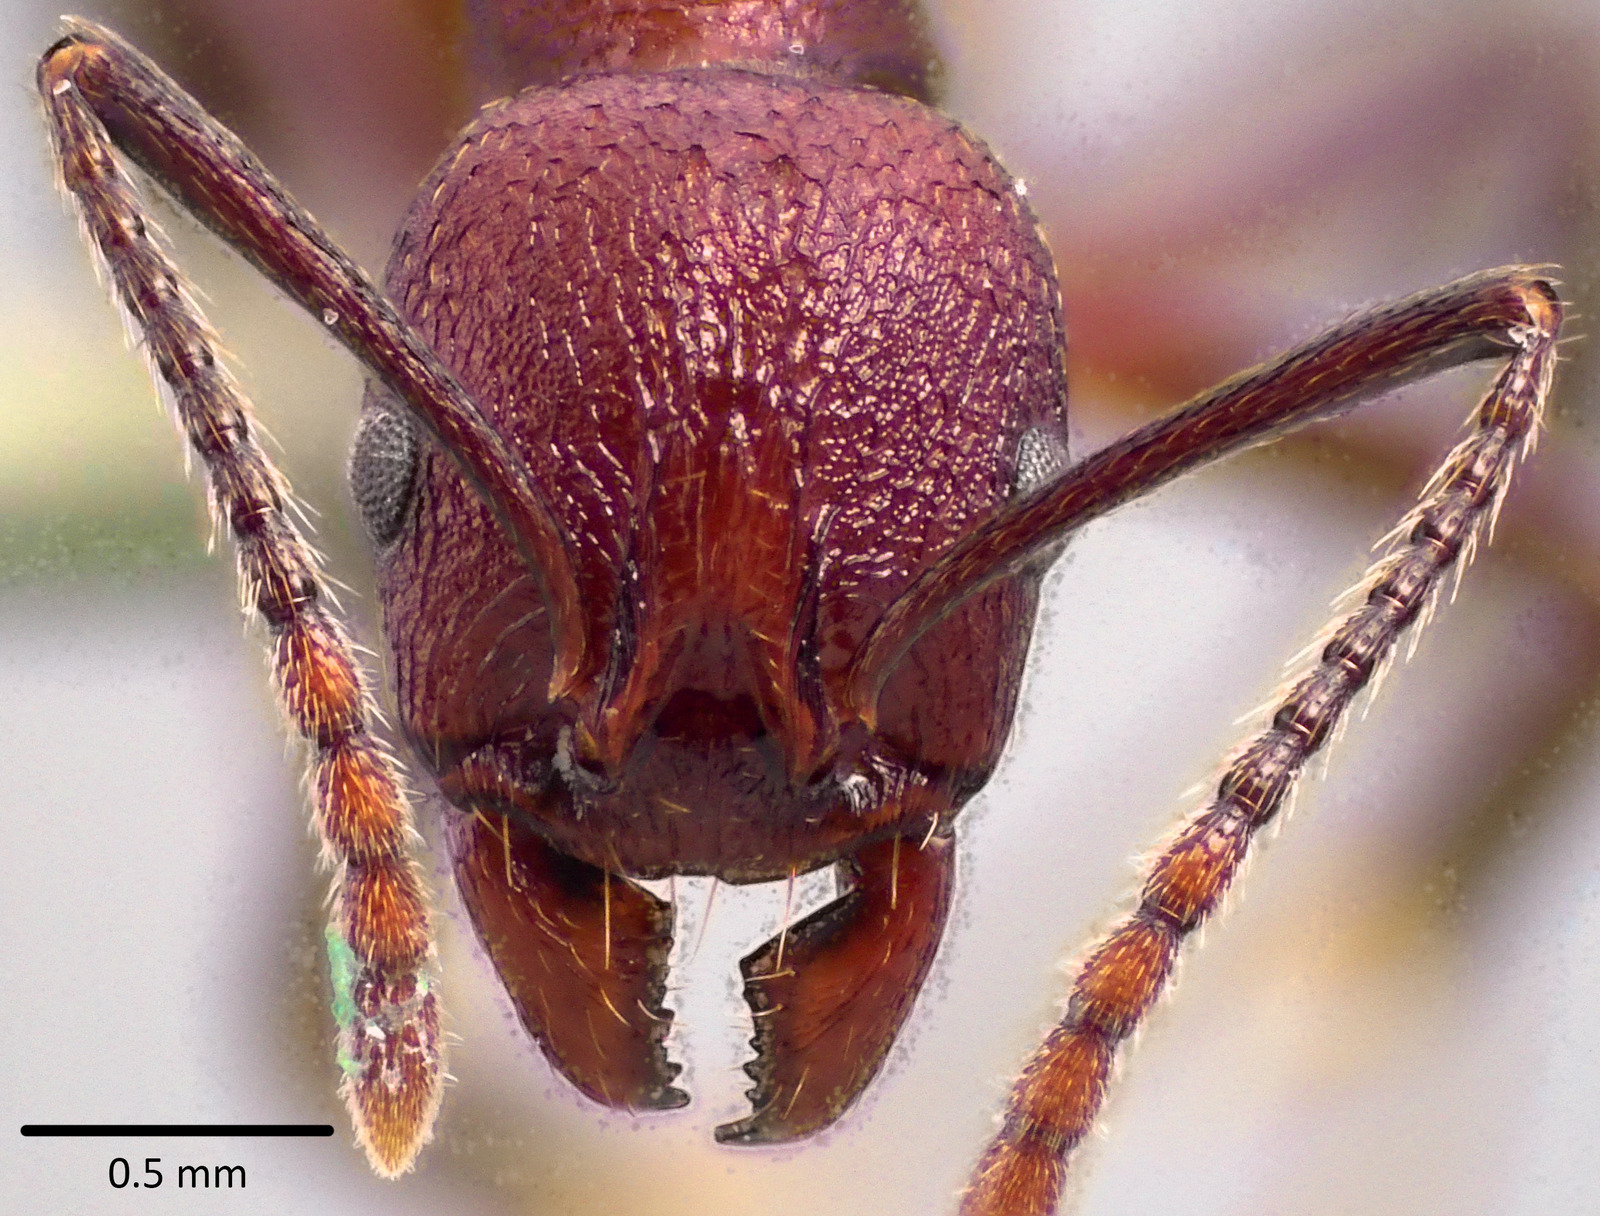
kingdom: Animalia
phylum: Arthropoda
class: Insecta
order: Hymenoptera
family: Formicidae
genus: Aphaenogaster
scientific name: Aphaenogaster tennesseensis
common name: Tennessee thread-waisted ant
